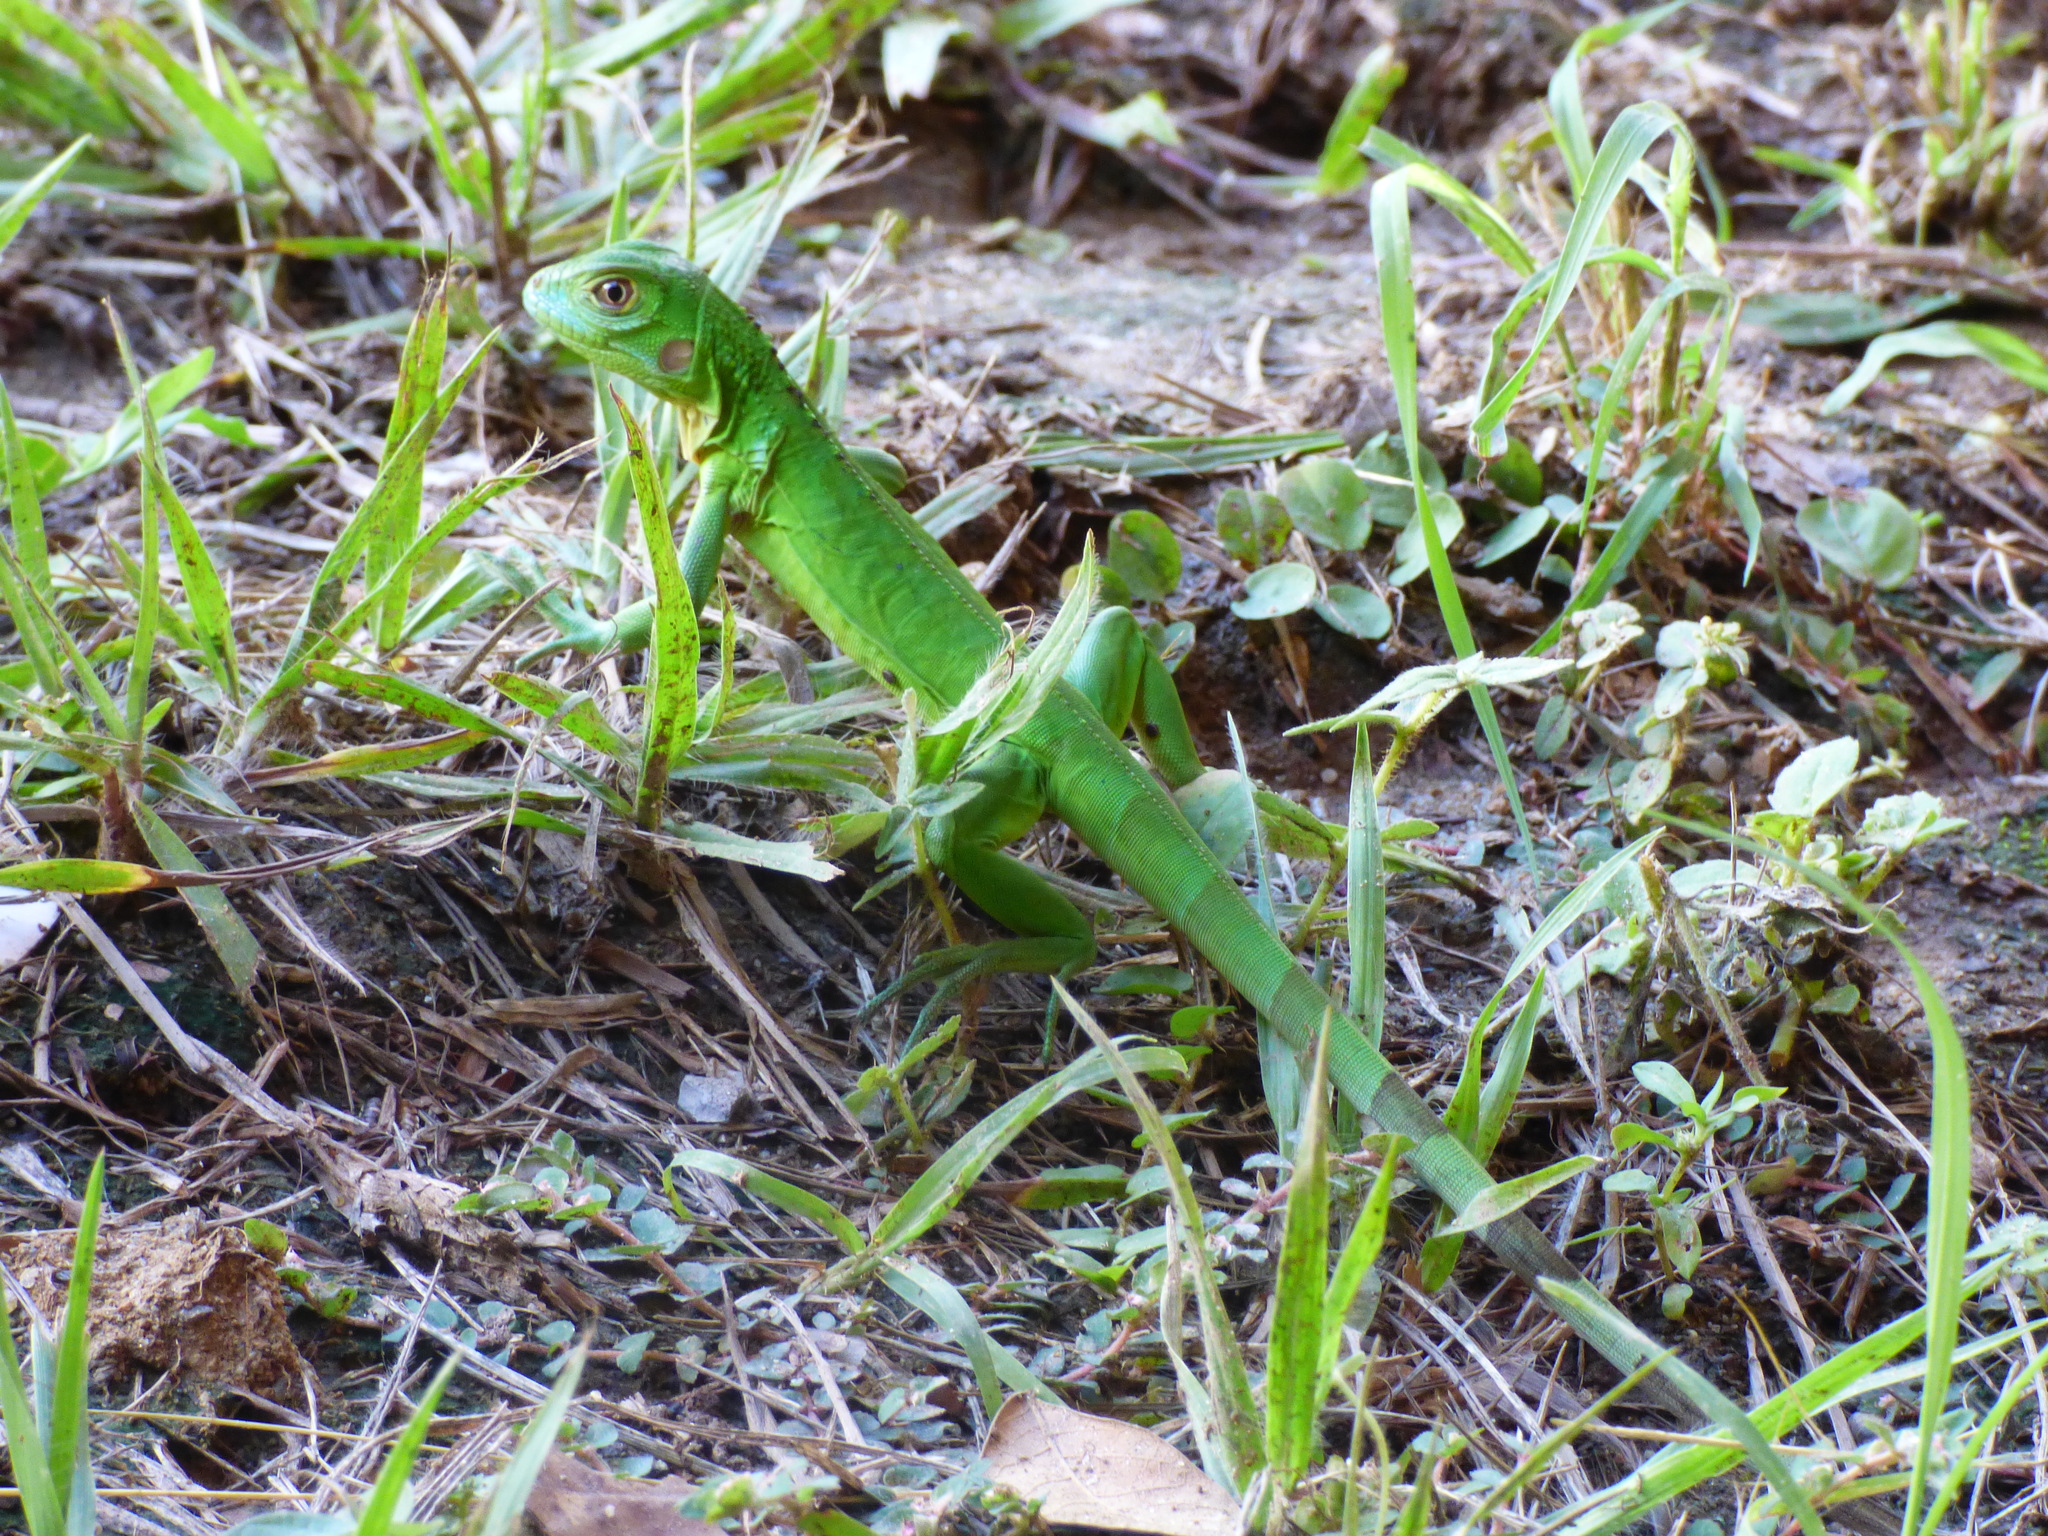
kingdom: Animalia
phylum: Chordata
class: Squamata
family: Iguanidae
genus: Iguana
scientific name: Iguana iguana
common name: Green iguana
